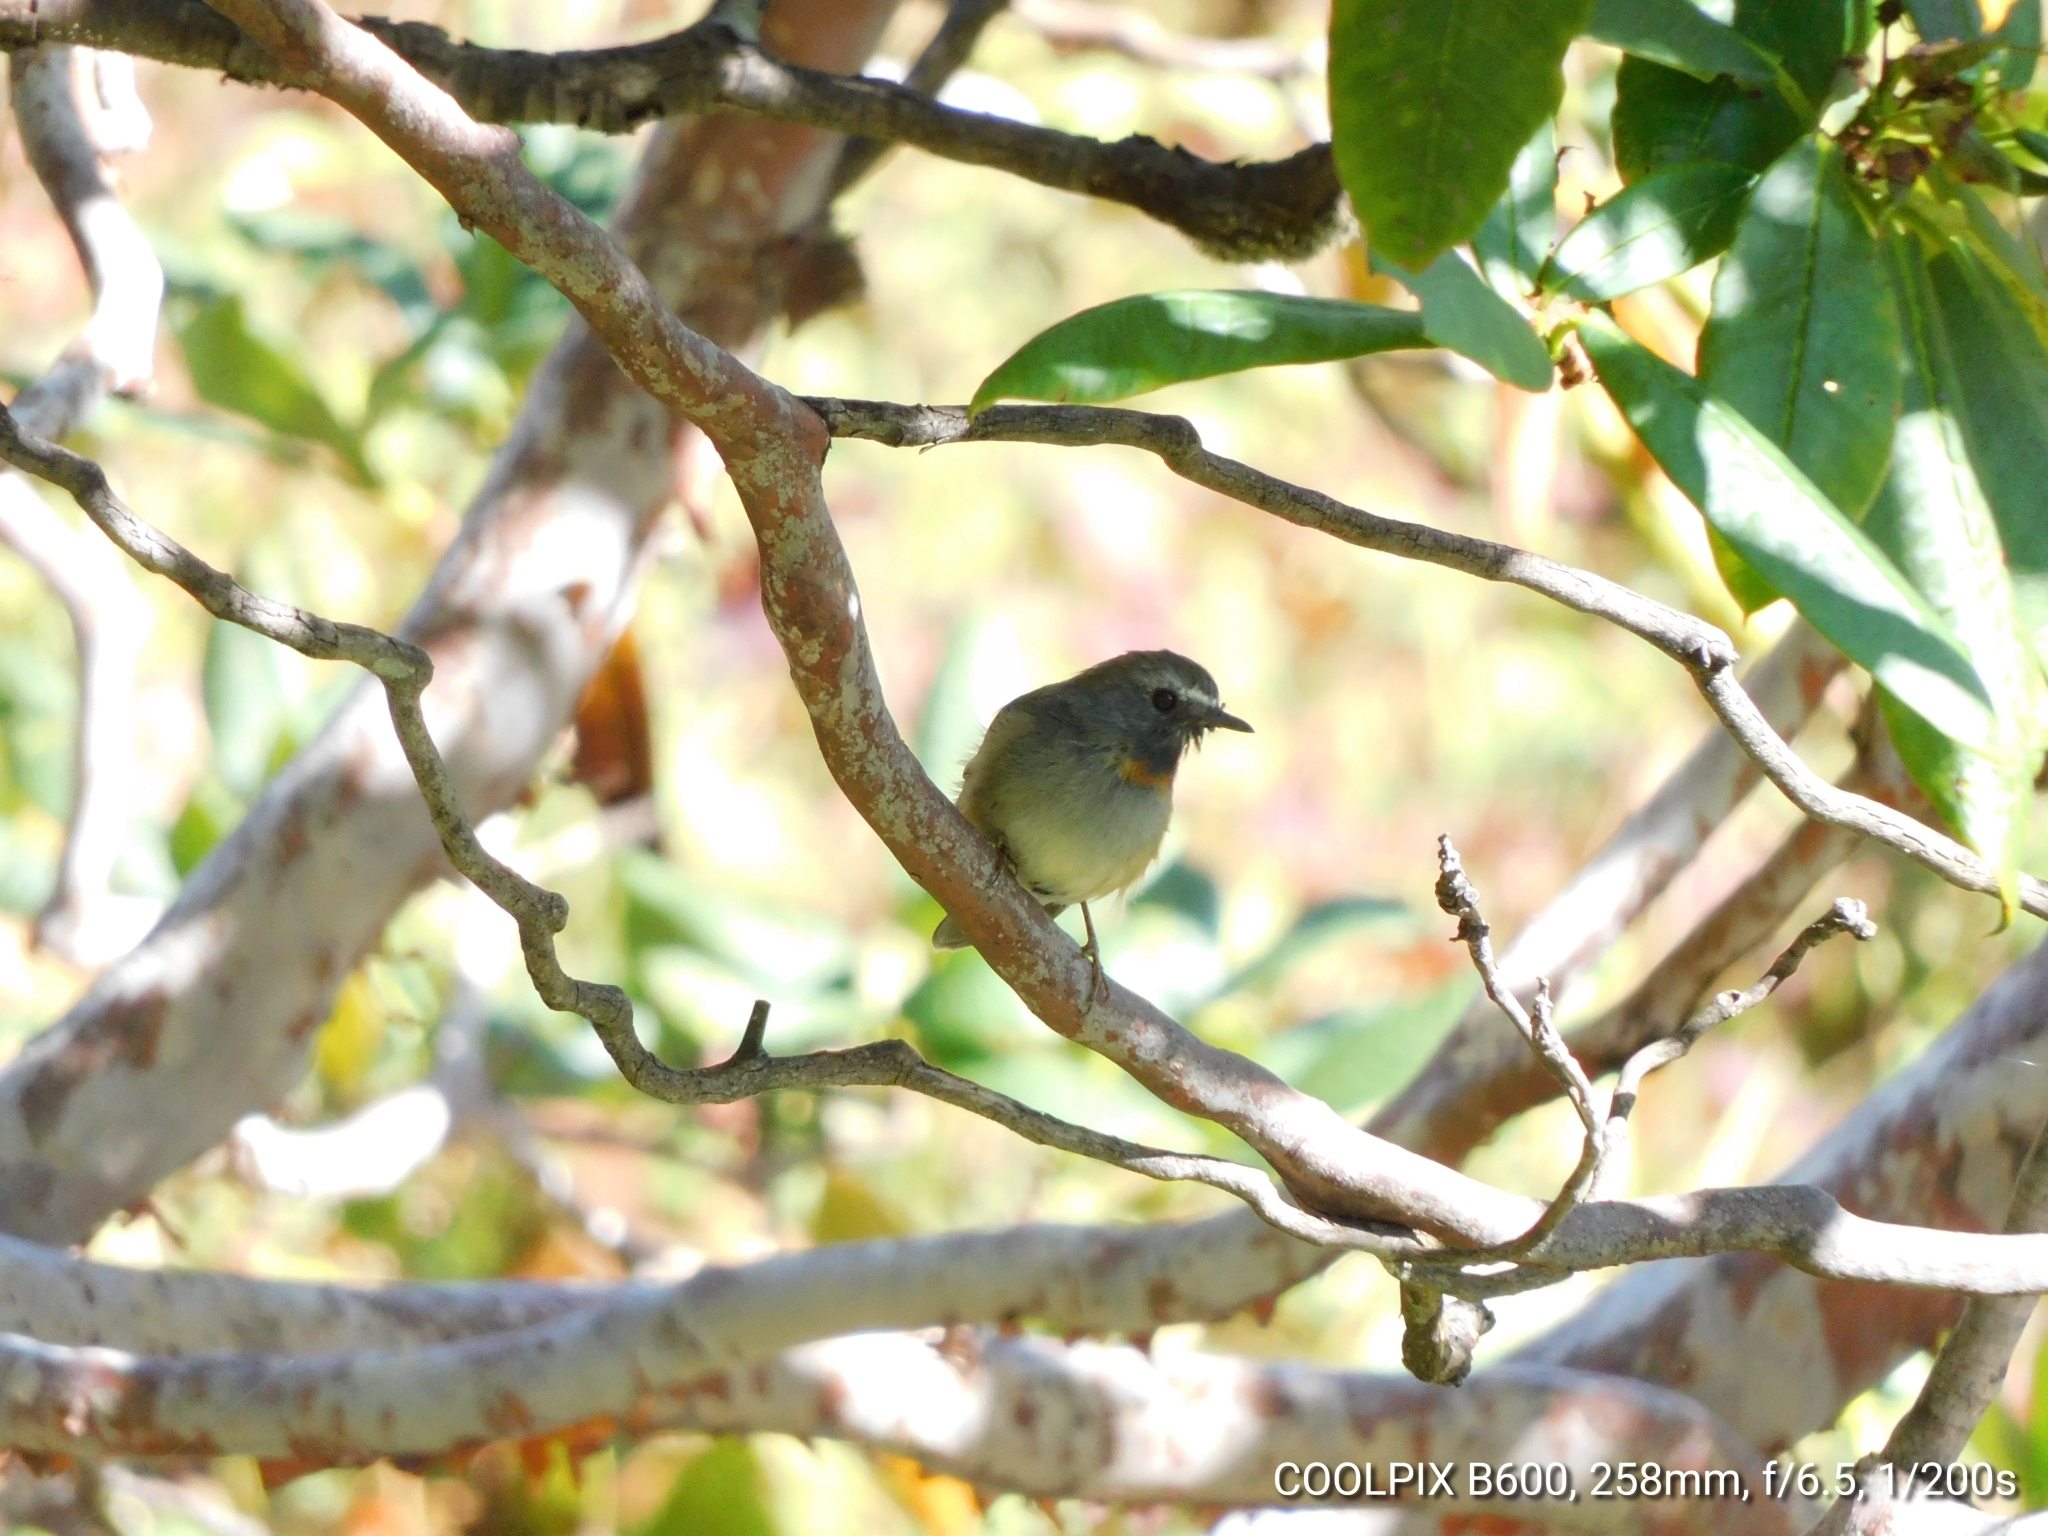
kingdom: Animalia
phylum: Chordata
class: Aves
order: Passeriformes
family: Muscicapidae
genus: Ficedula
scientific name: Ficedula strophiata
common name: Rufous-gorgeted flycatcher
